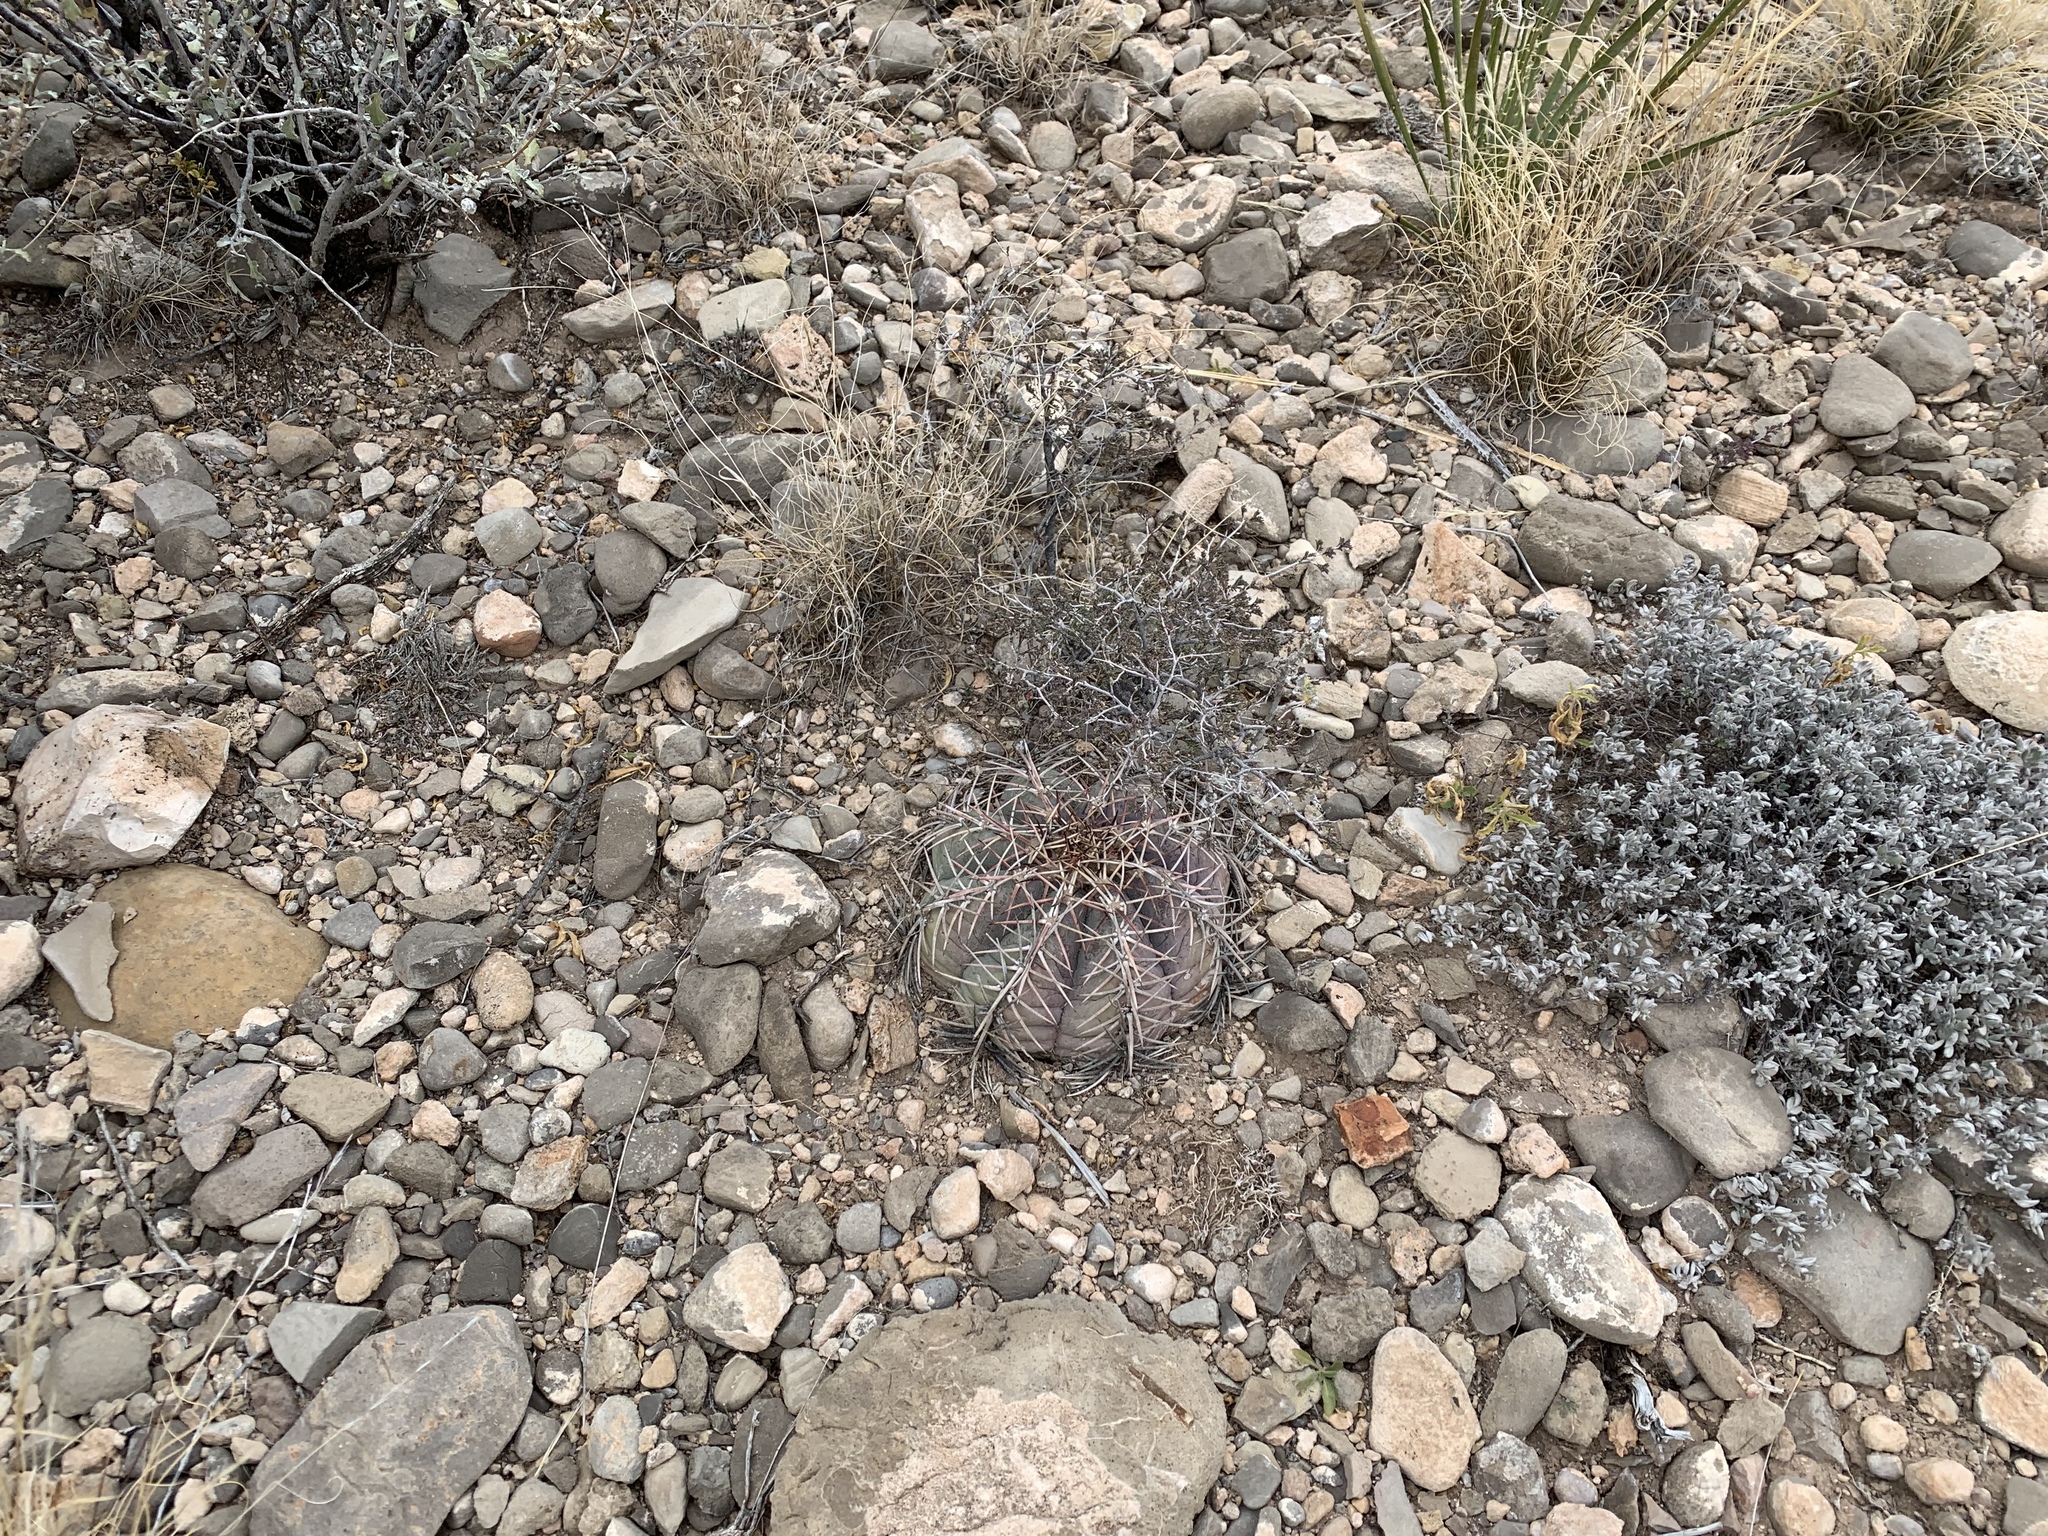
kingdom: Plantae
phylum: Tracheophyta
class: Magnoliopsida
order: Caryophyllales
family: Cactaceae
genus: Echinocactus
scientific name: Echinocactus horizonthalonius
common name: Devilshead
